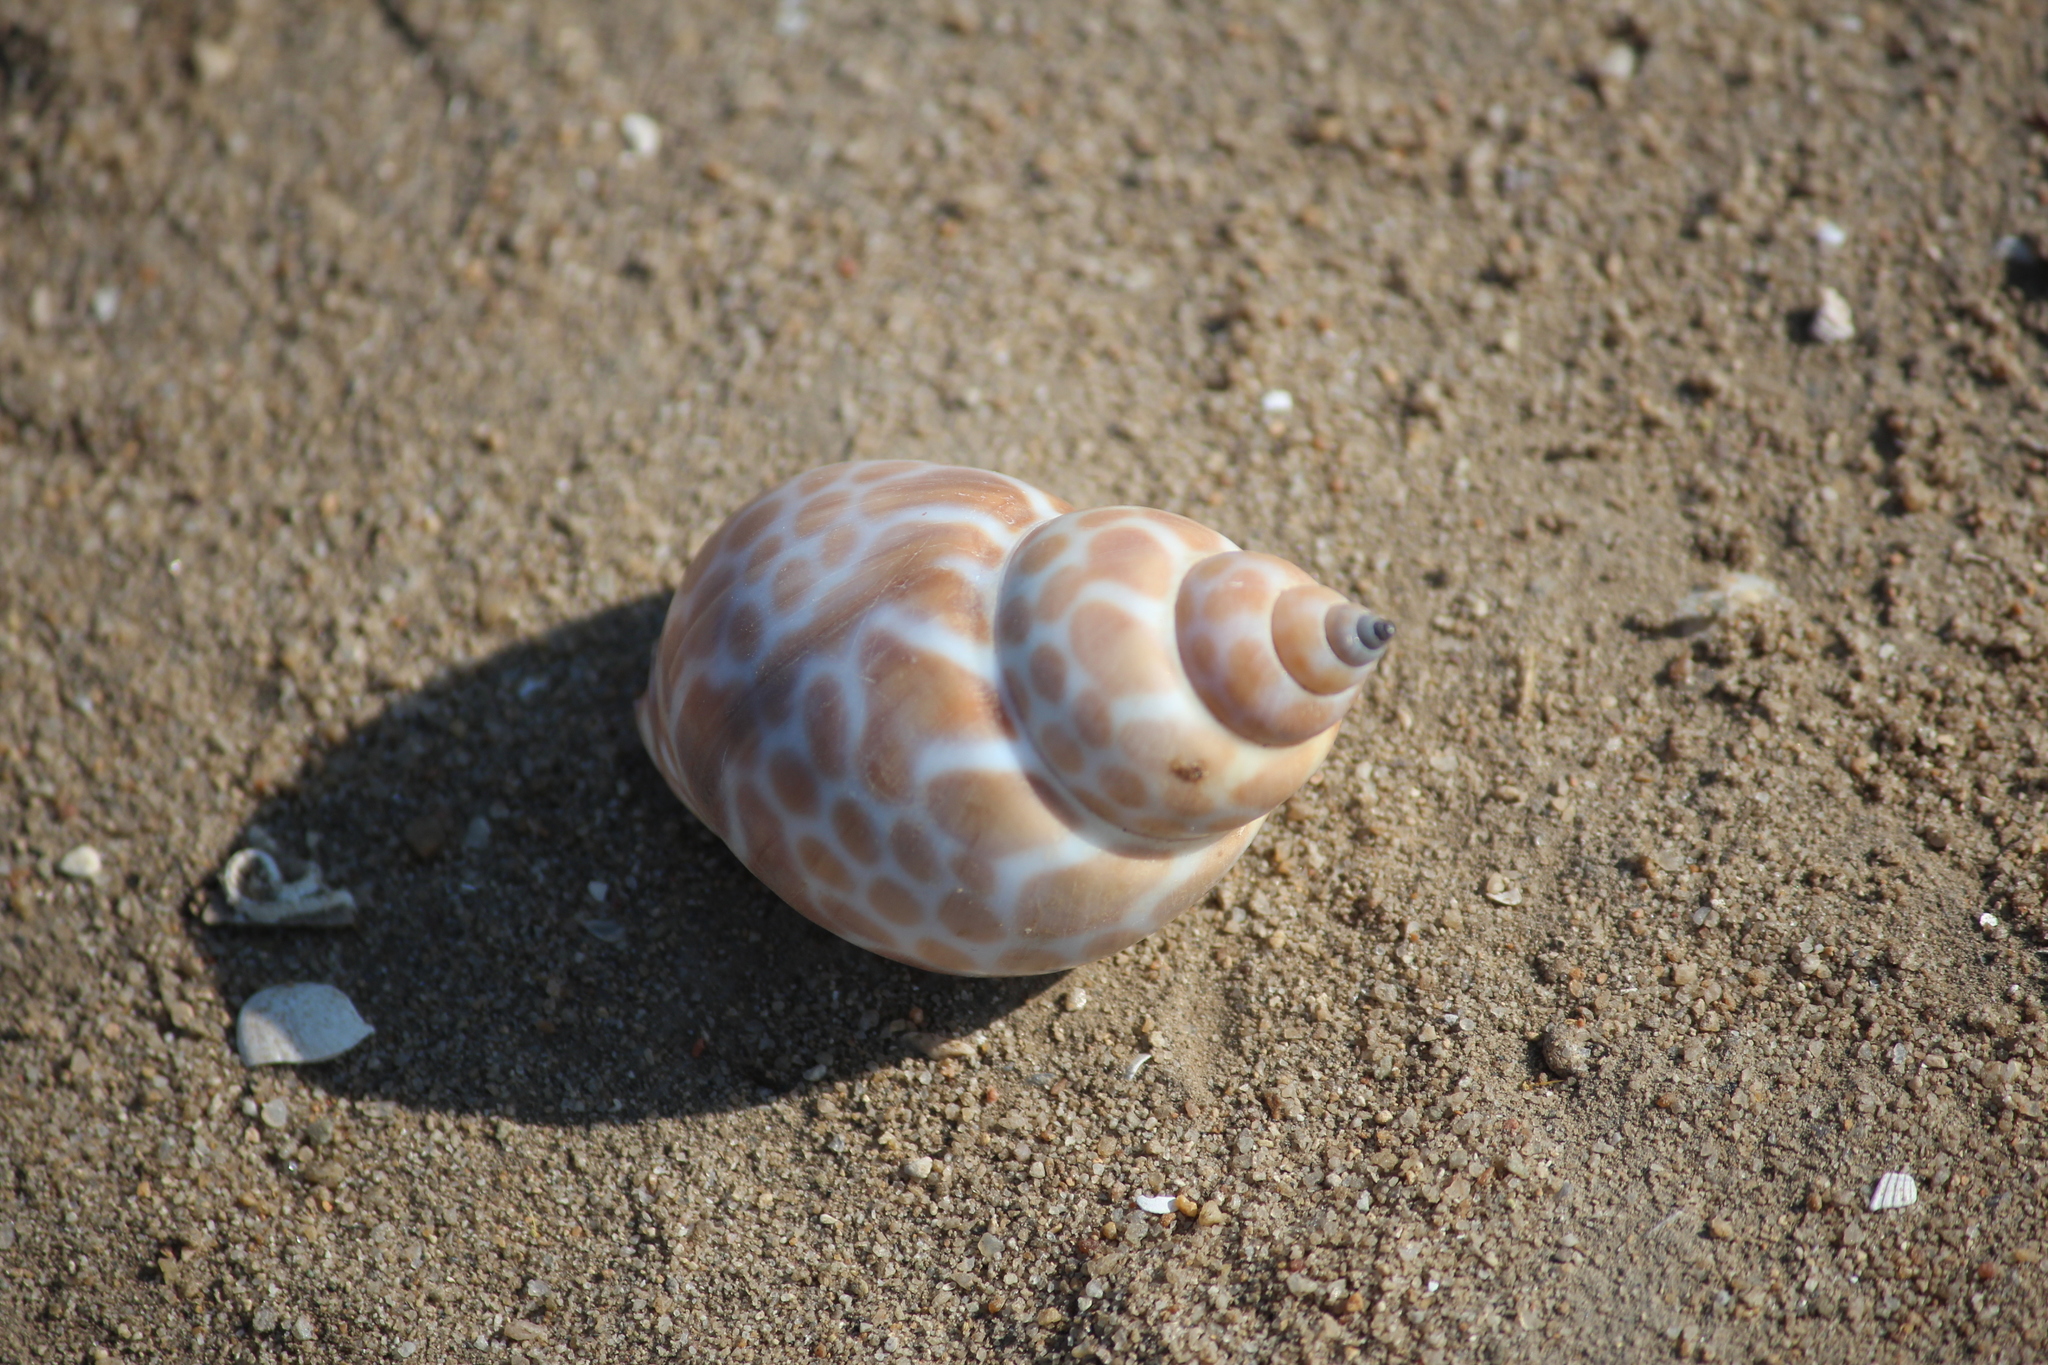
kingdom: Animalia
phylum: Mollusca
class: Gastropoda
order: Neogastropoda
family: Babyloniidae
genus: Babylonia
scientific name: Babylonia zeylanica
